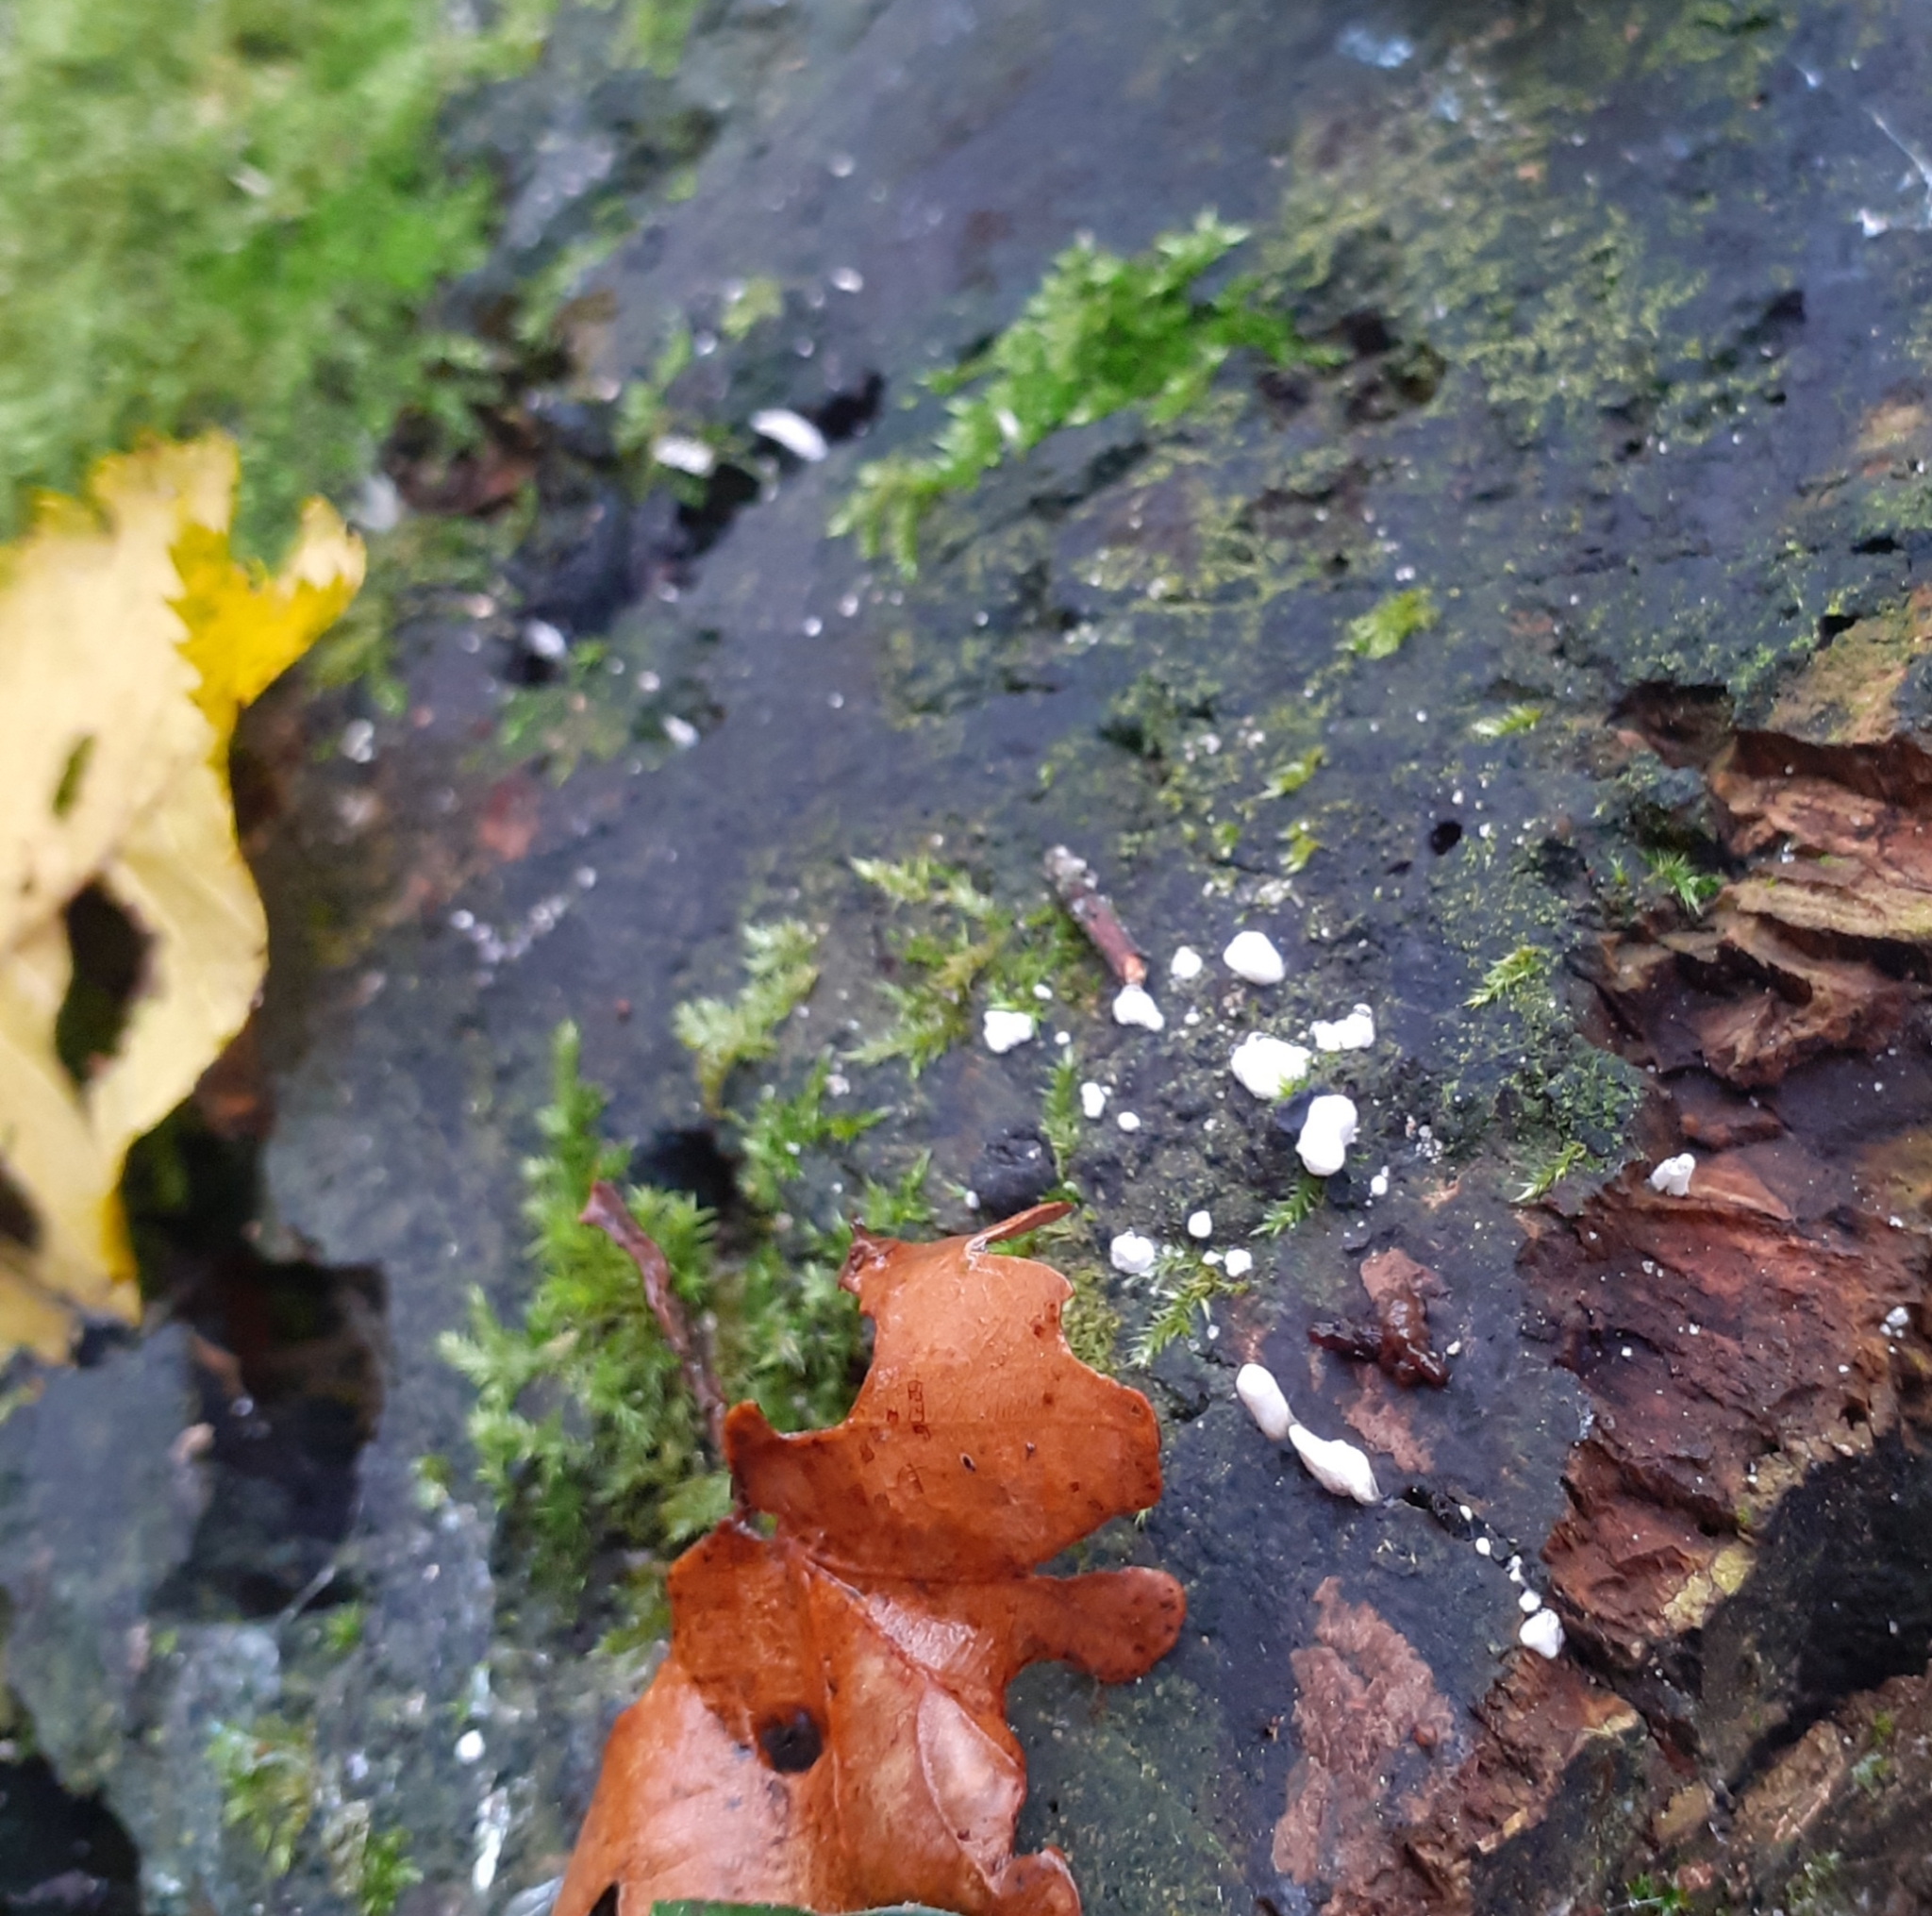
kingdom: Fungi
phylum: Ascomycota
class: Sordariomycetes
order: Xylariales
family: Xylariaceae
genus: Xylaria
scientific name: Xylaria hypoxylon
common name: Candle-snuff fungus
